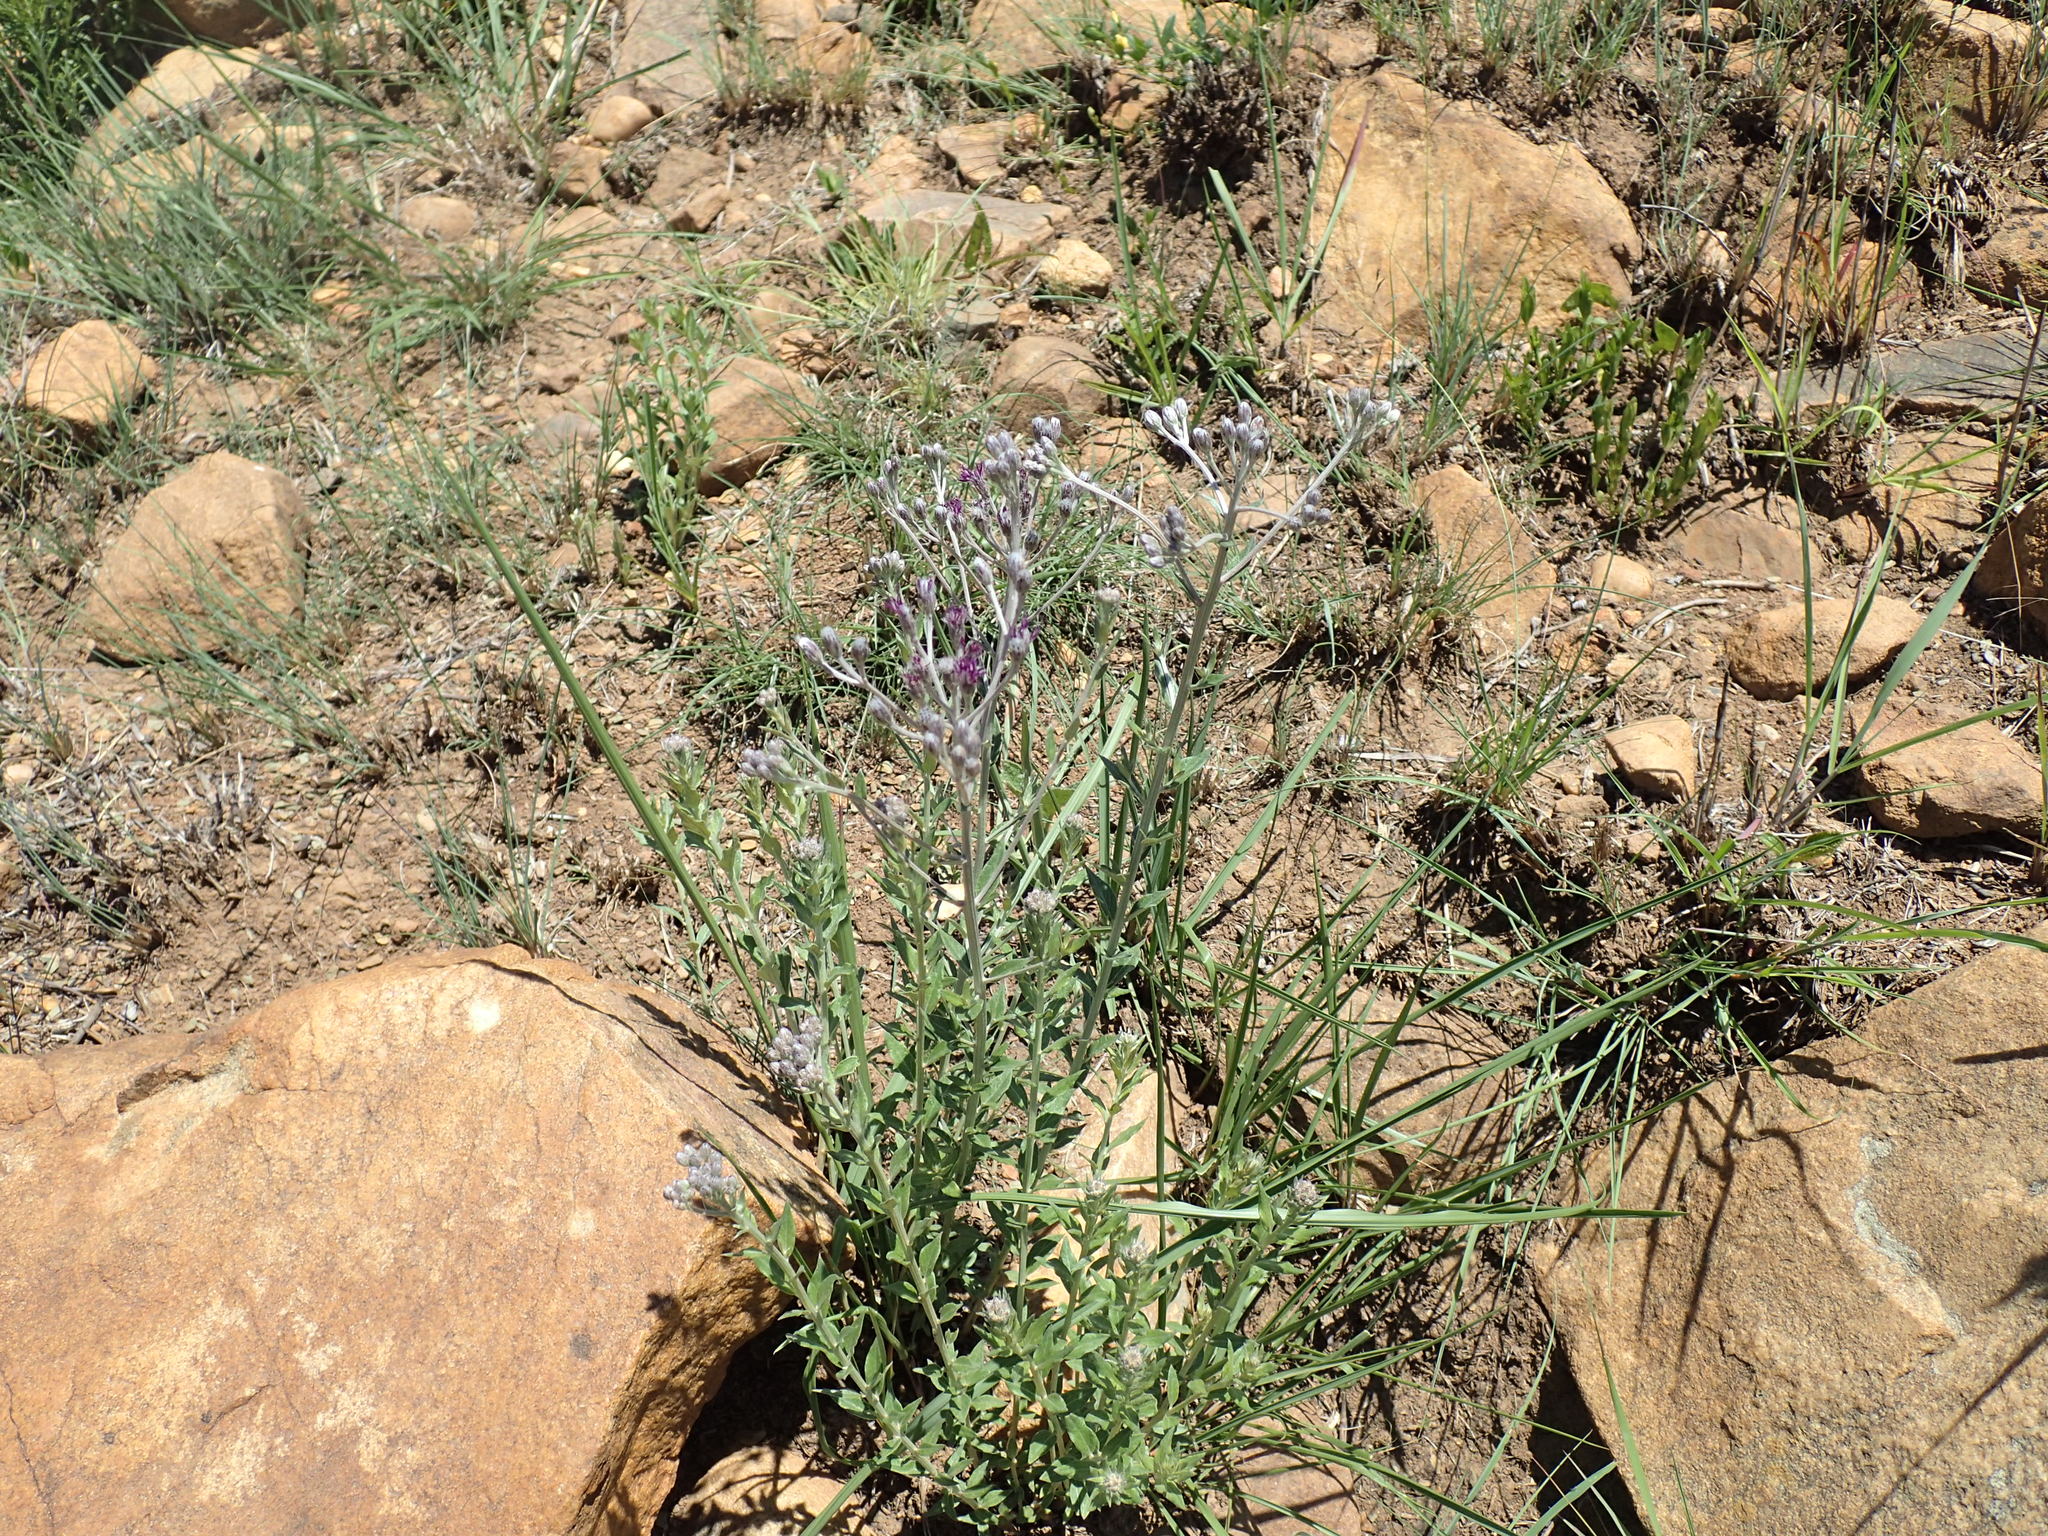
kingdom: Plantae
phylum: Tracheophyta
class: Magnoliopsida
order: Asterales
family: Asteraceae
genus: Hilliardiella
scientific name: Hilliardiella oligocephala
